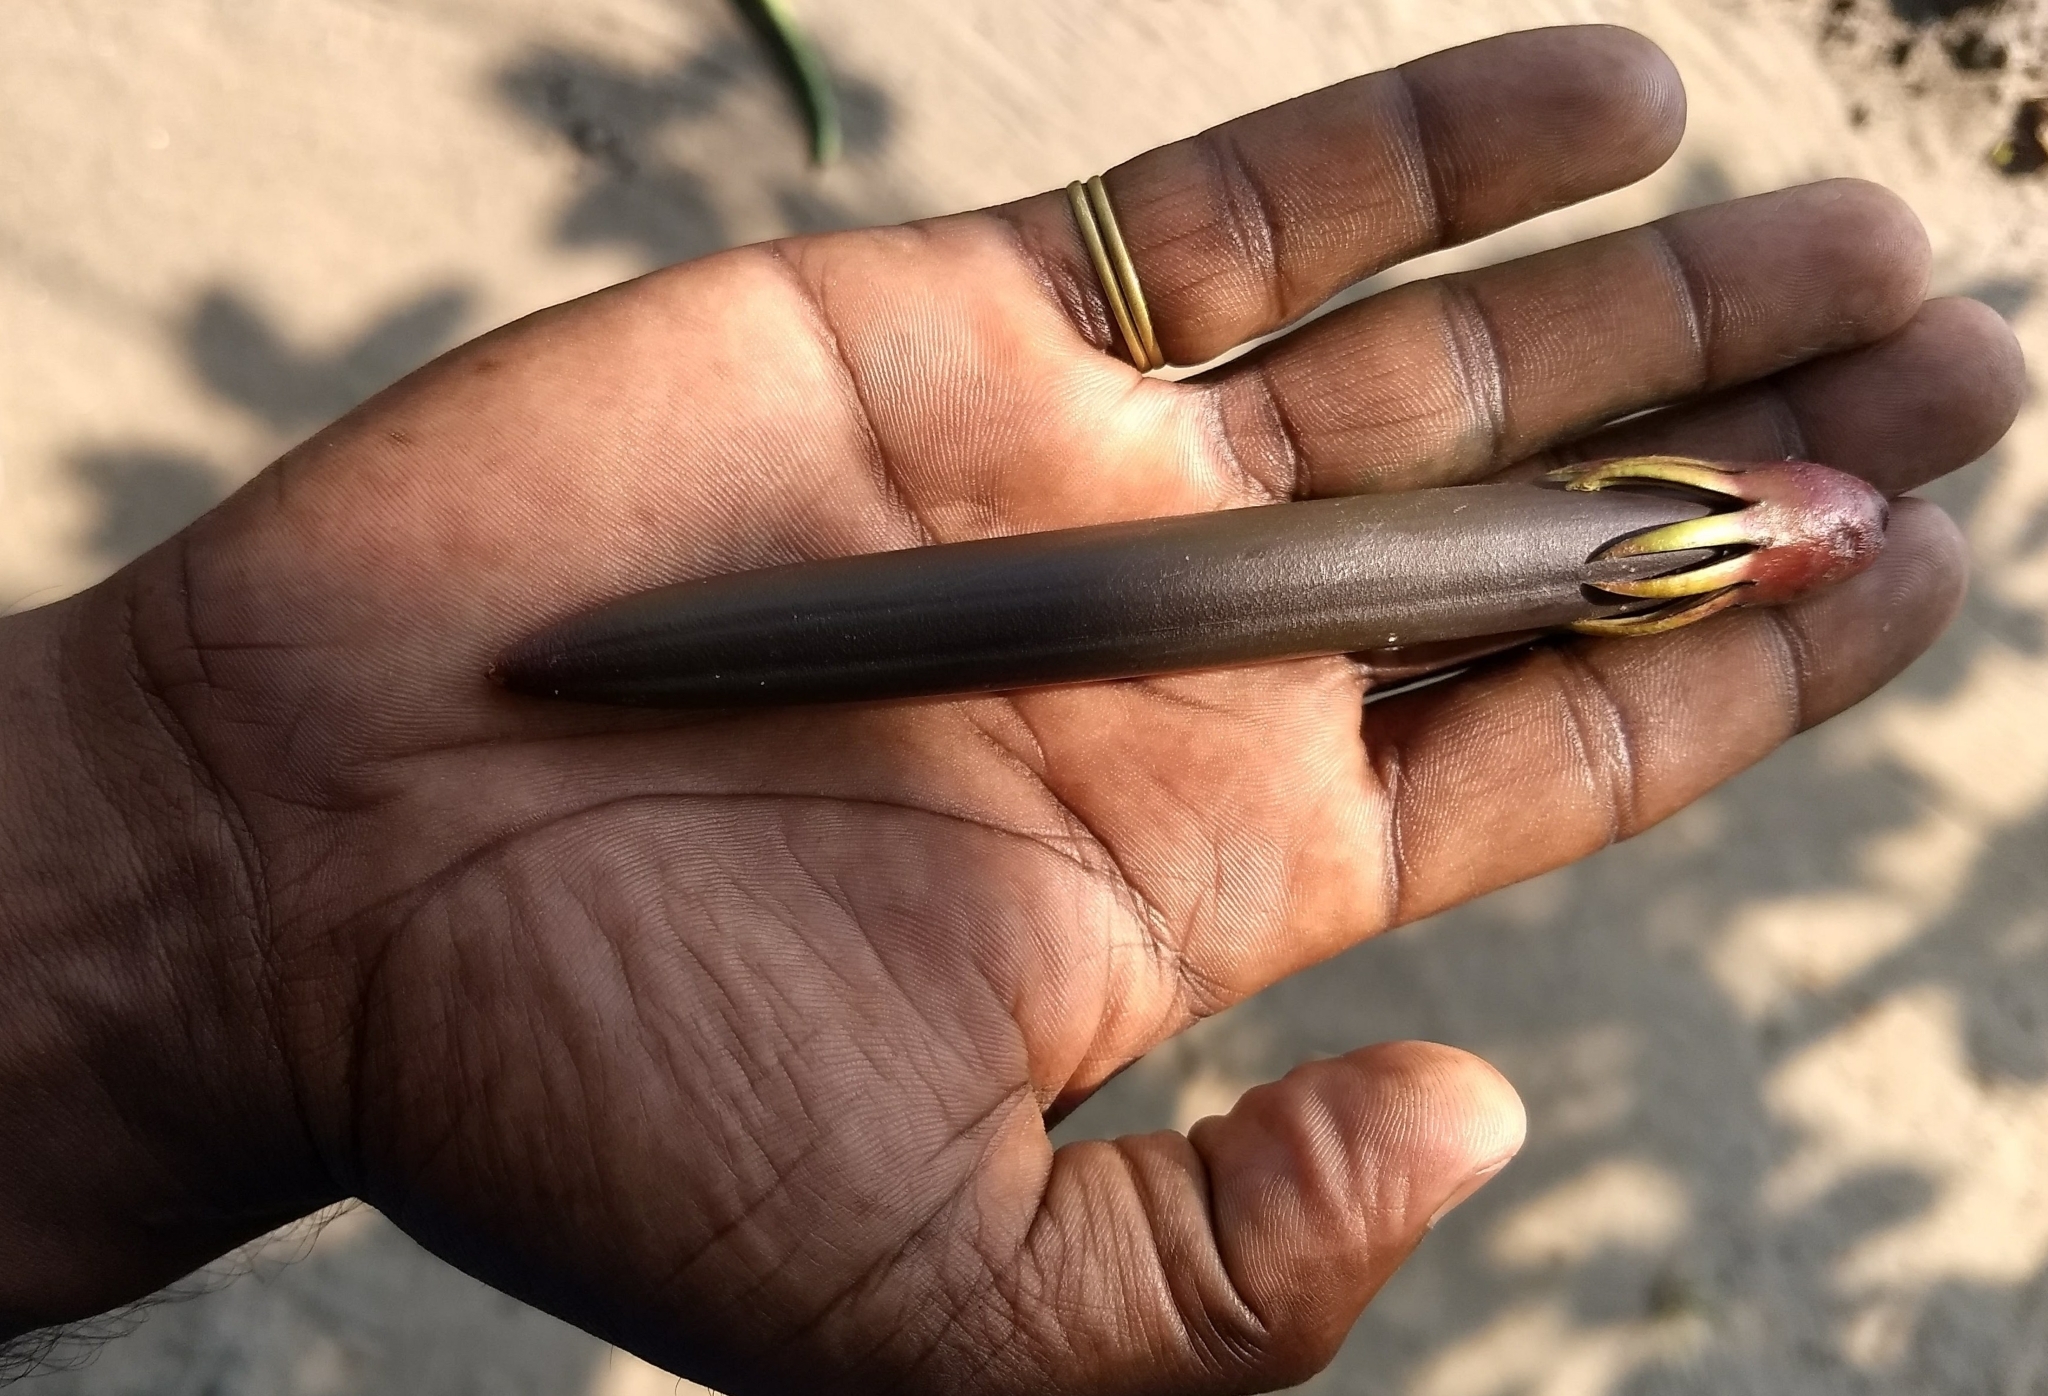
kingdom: Plantae
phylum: Tracheophyta
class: Magnoliopsida
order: Malpighiales
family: Rhizophoraceae
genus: Bruguiera
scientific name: Bruguiera gymnorhiza
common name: Oriental mangrove
